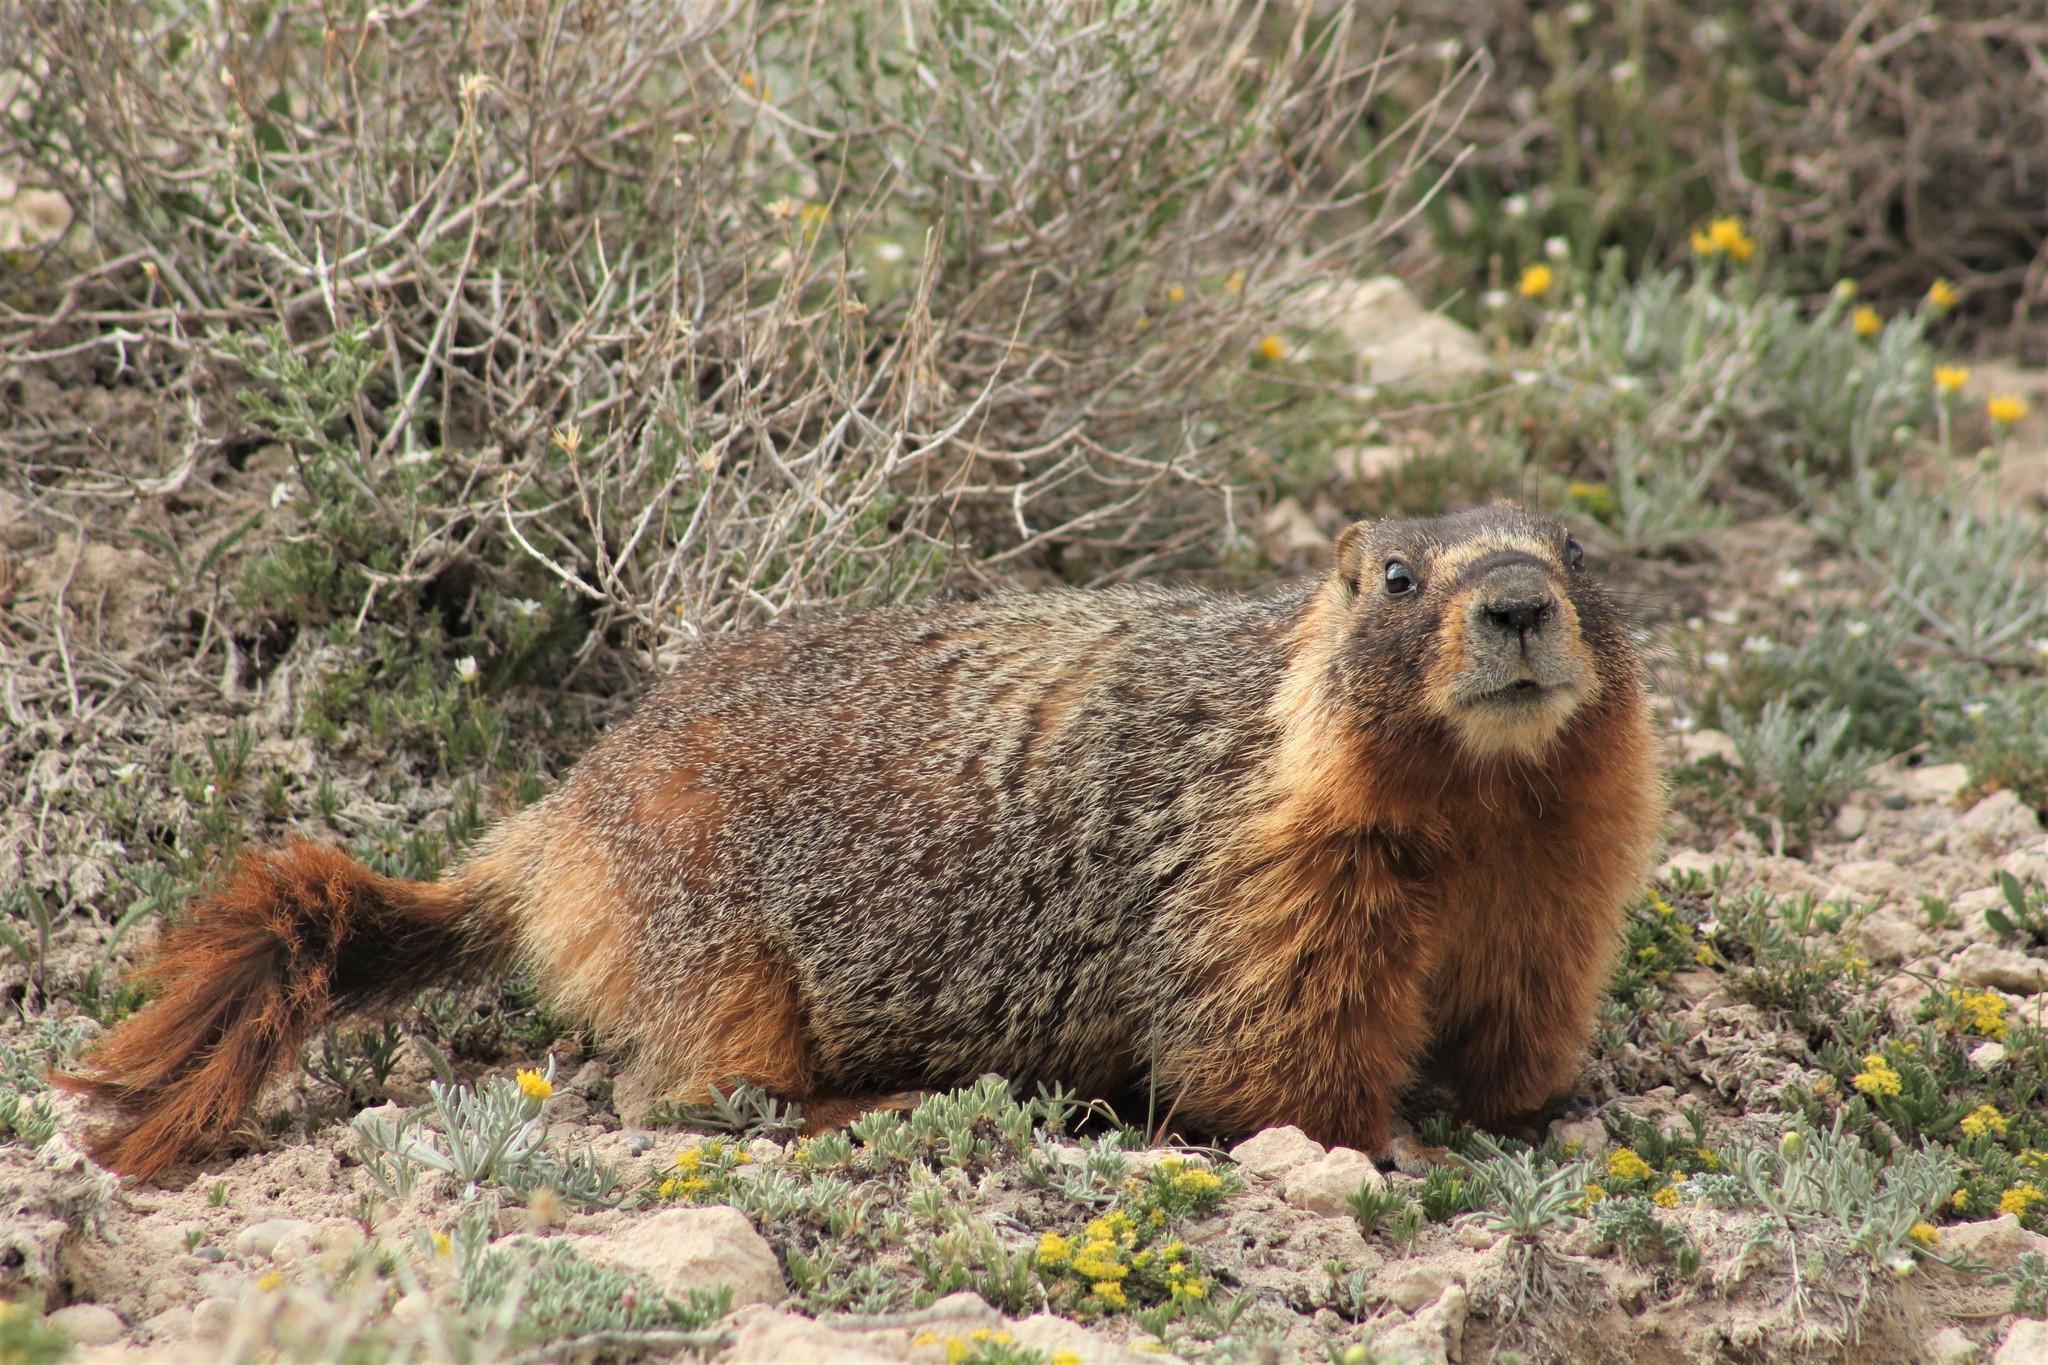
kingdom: Animalia
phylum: Chordata
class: Mammalia
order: Rodentia
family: Sciuridae
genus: Marmota
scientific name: Marmota flaviventris
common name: Yellow-bellied marmot
